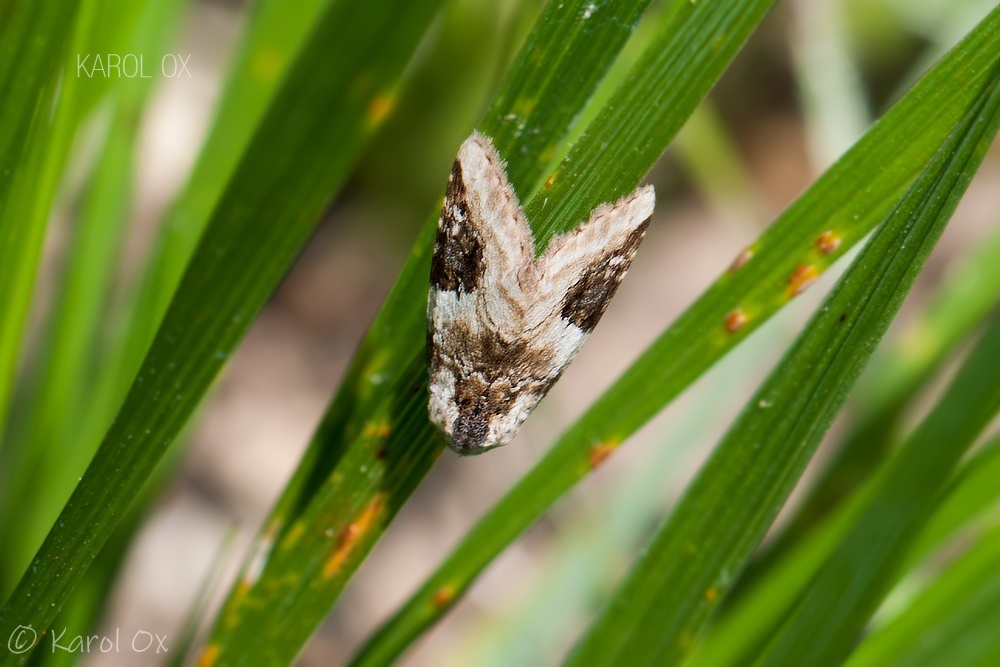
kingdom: Animalia
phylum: Arthropoda
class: Insecta
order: Lepidoptera
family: Noctuidae
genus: Pseudeustrotia
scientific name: Pseudeustrotia candidula
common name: Shining marbled
